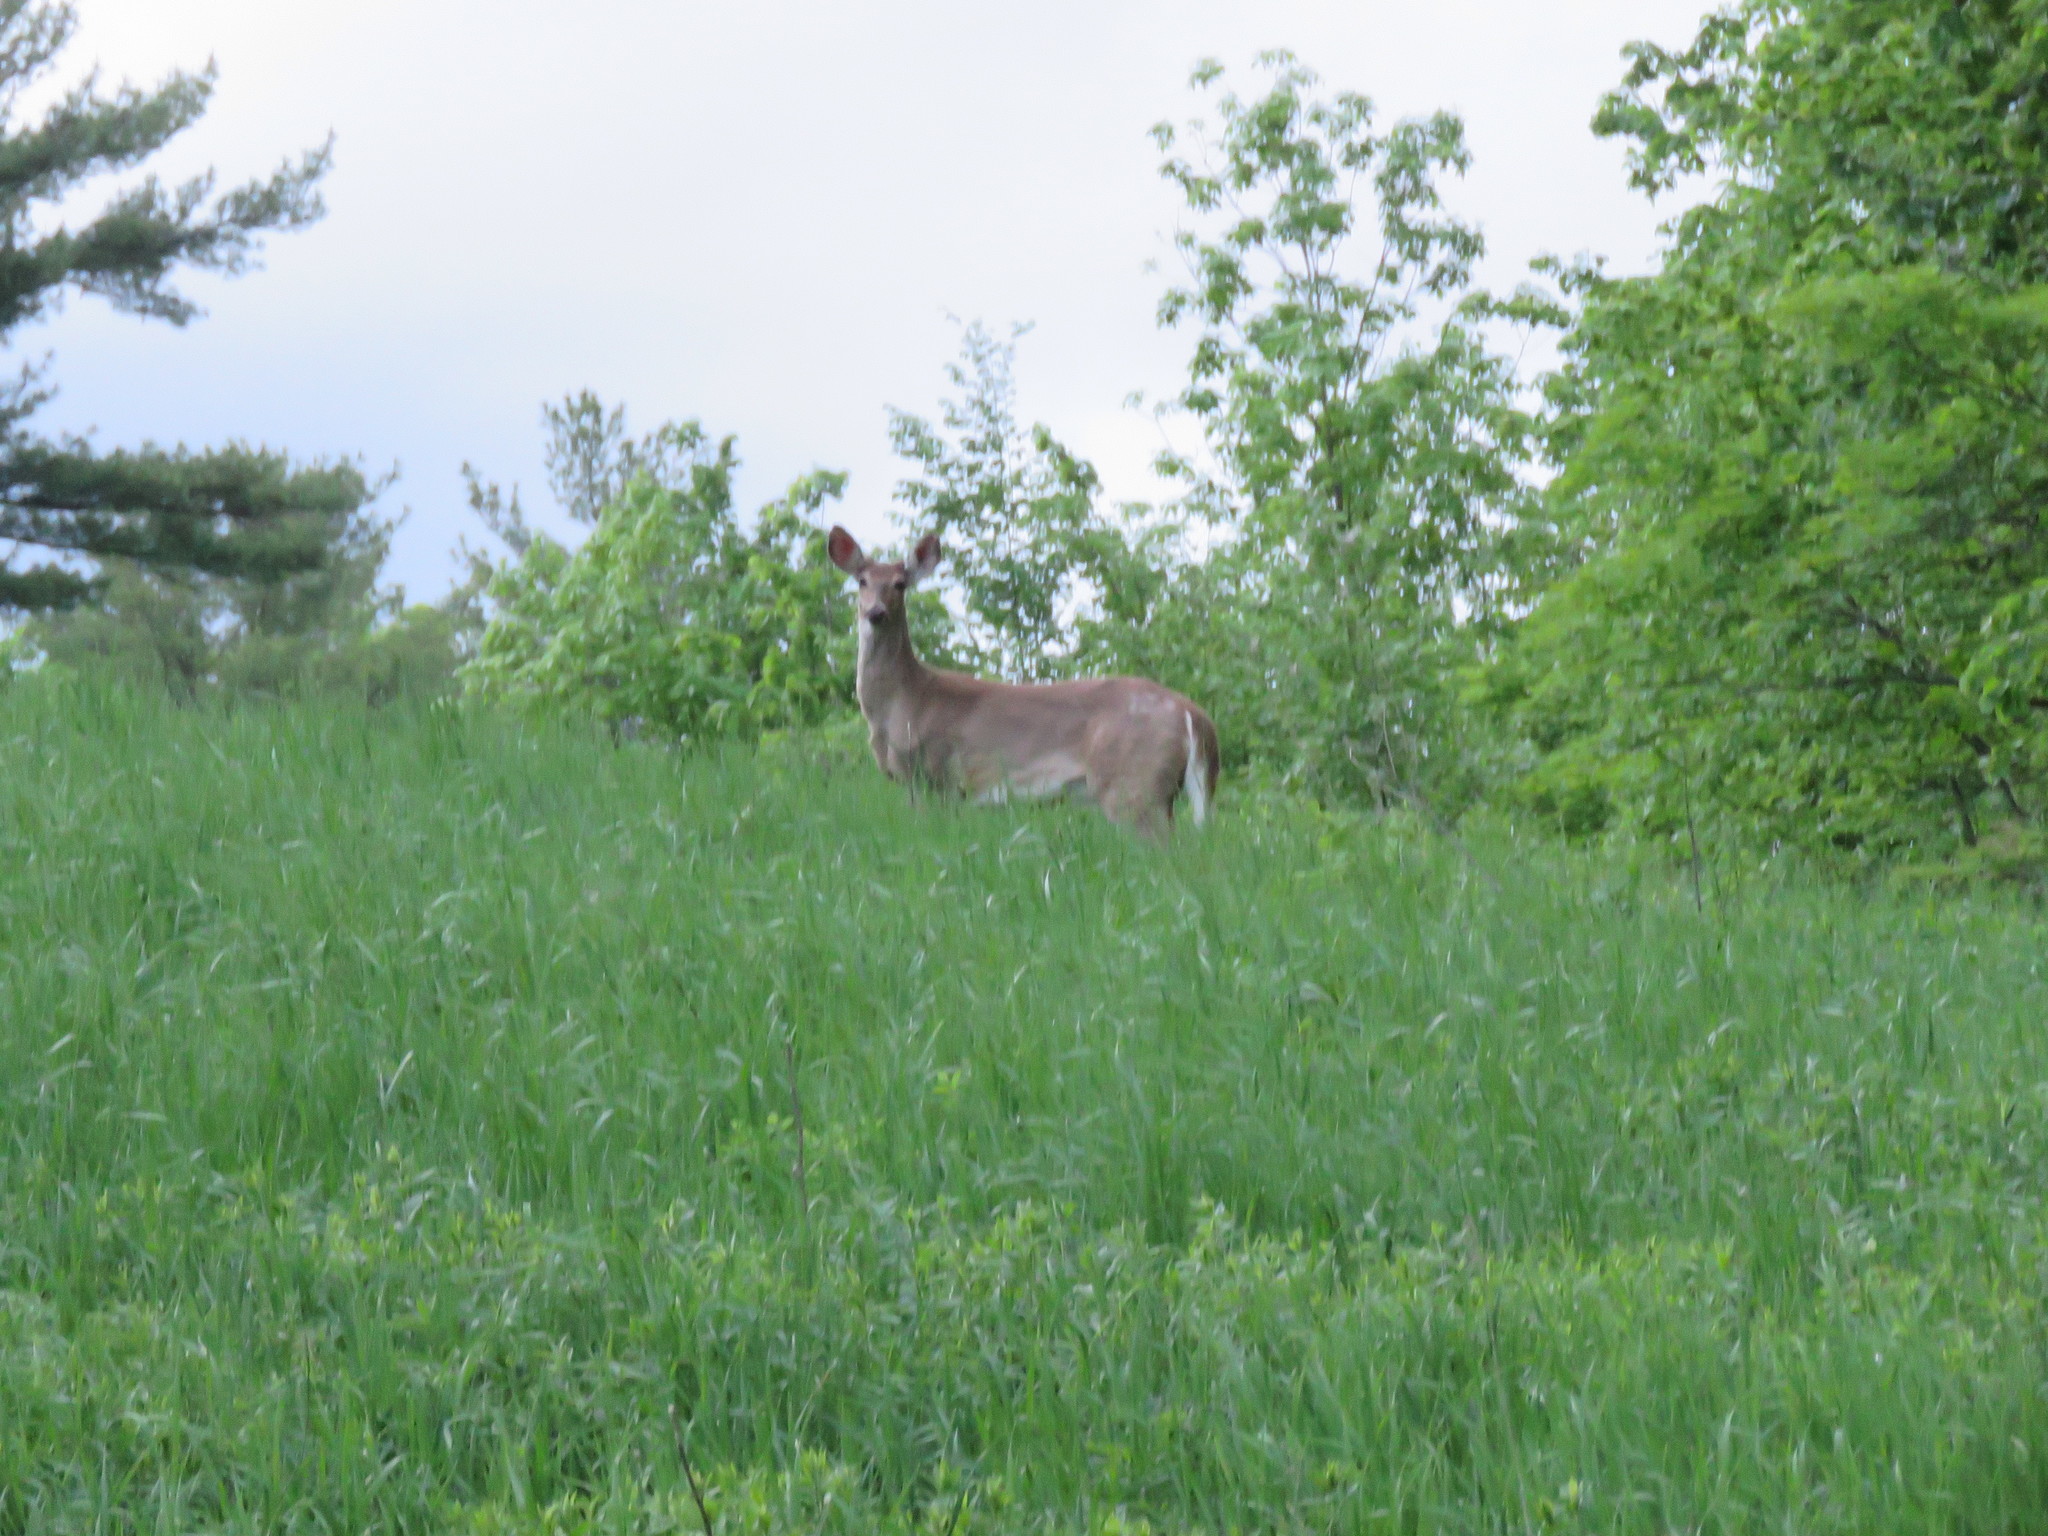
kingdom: Animalia
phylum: Chordata
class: Mammalia
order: Artiodactyla
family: Cervidae
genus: Odocoileus
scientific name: Odocoileus virginianus
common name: White-tailed deer
